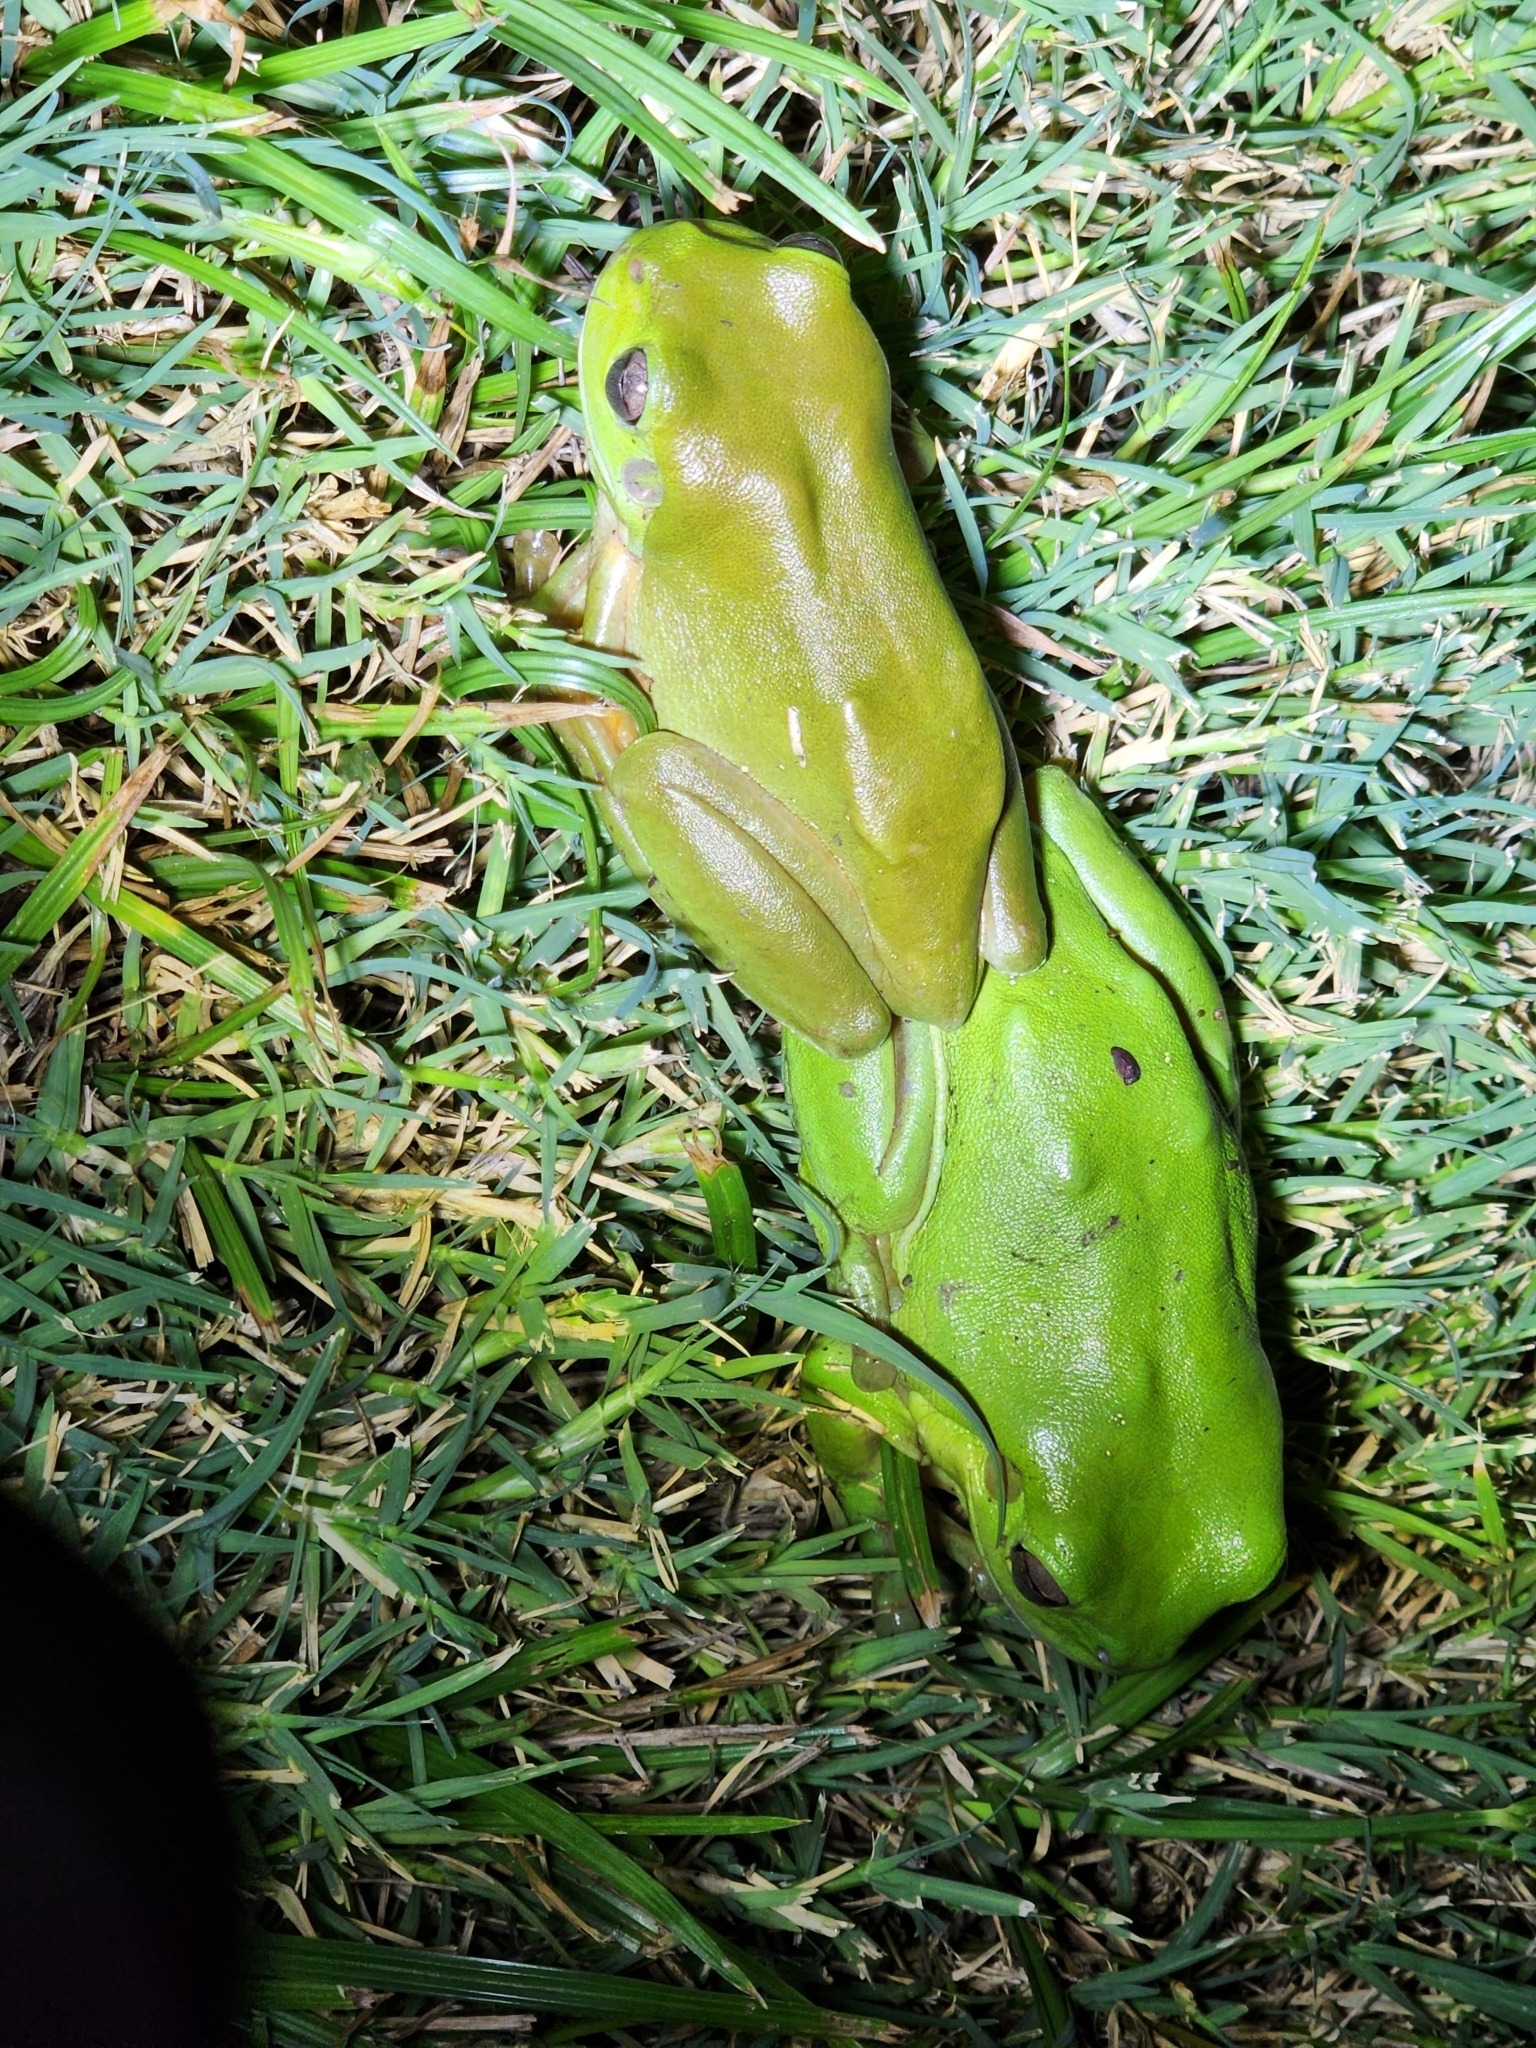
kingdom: Animalia
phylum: Chordata
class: Amphibia
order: Anura
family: Pelodryadidae
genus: Ranoidea
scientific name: Ranoidea caerulea
